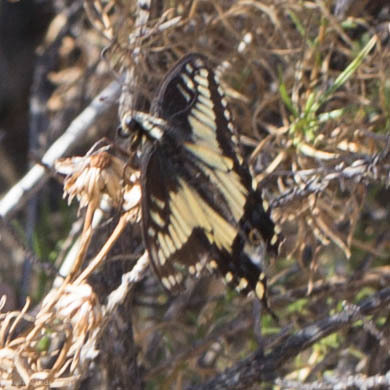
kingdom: Animalia
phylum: Arthropoda
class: Insecta
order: Lepidoptera
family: Papilionidae
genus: Papilio
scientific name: Papilio zelicaon
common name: Anise swallowtail
